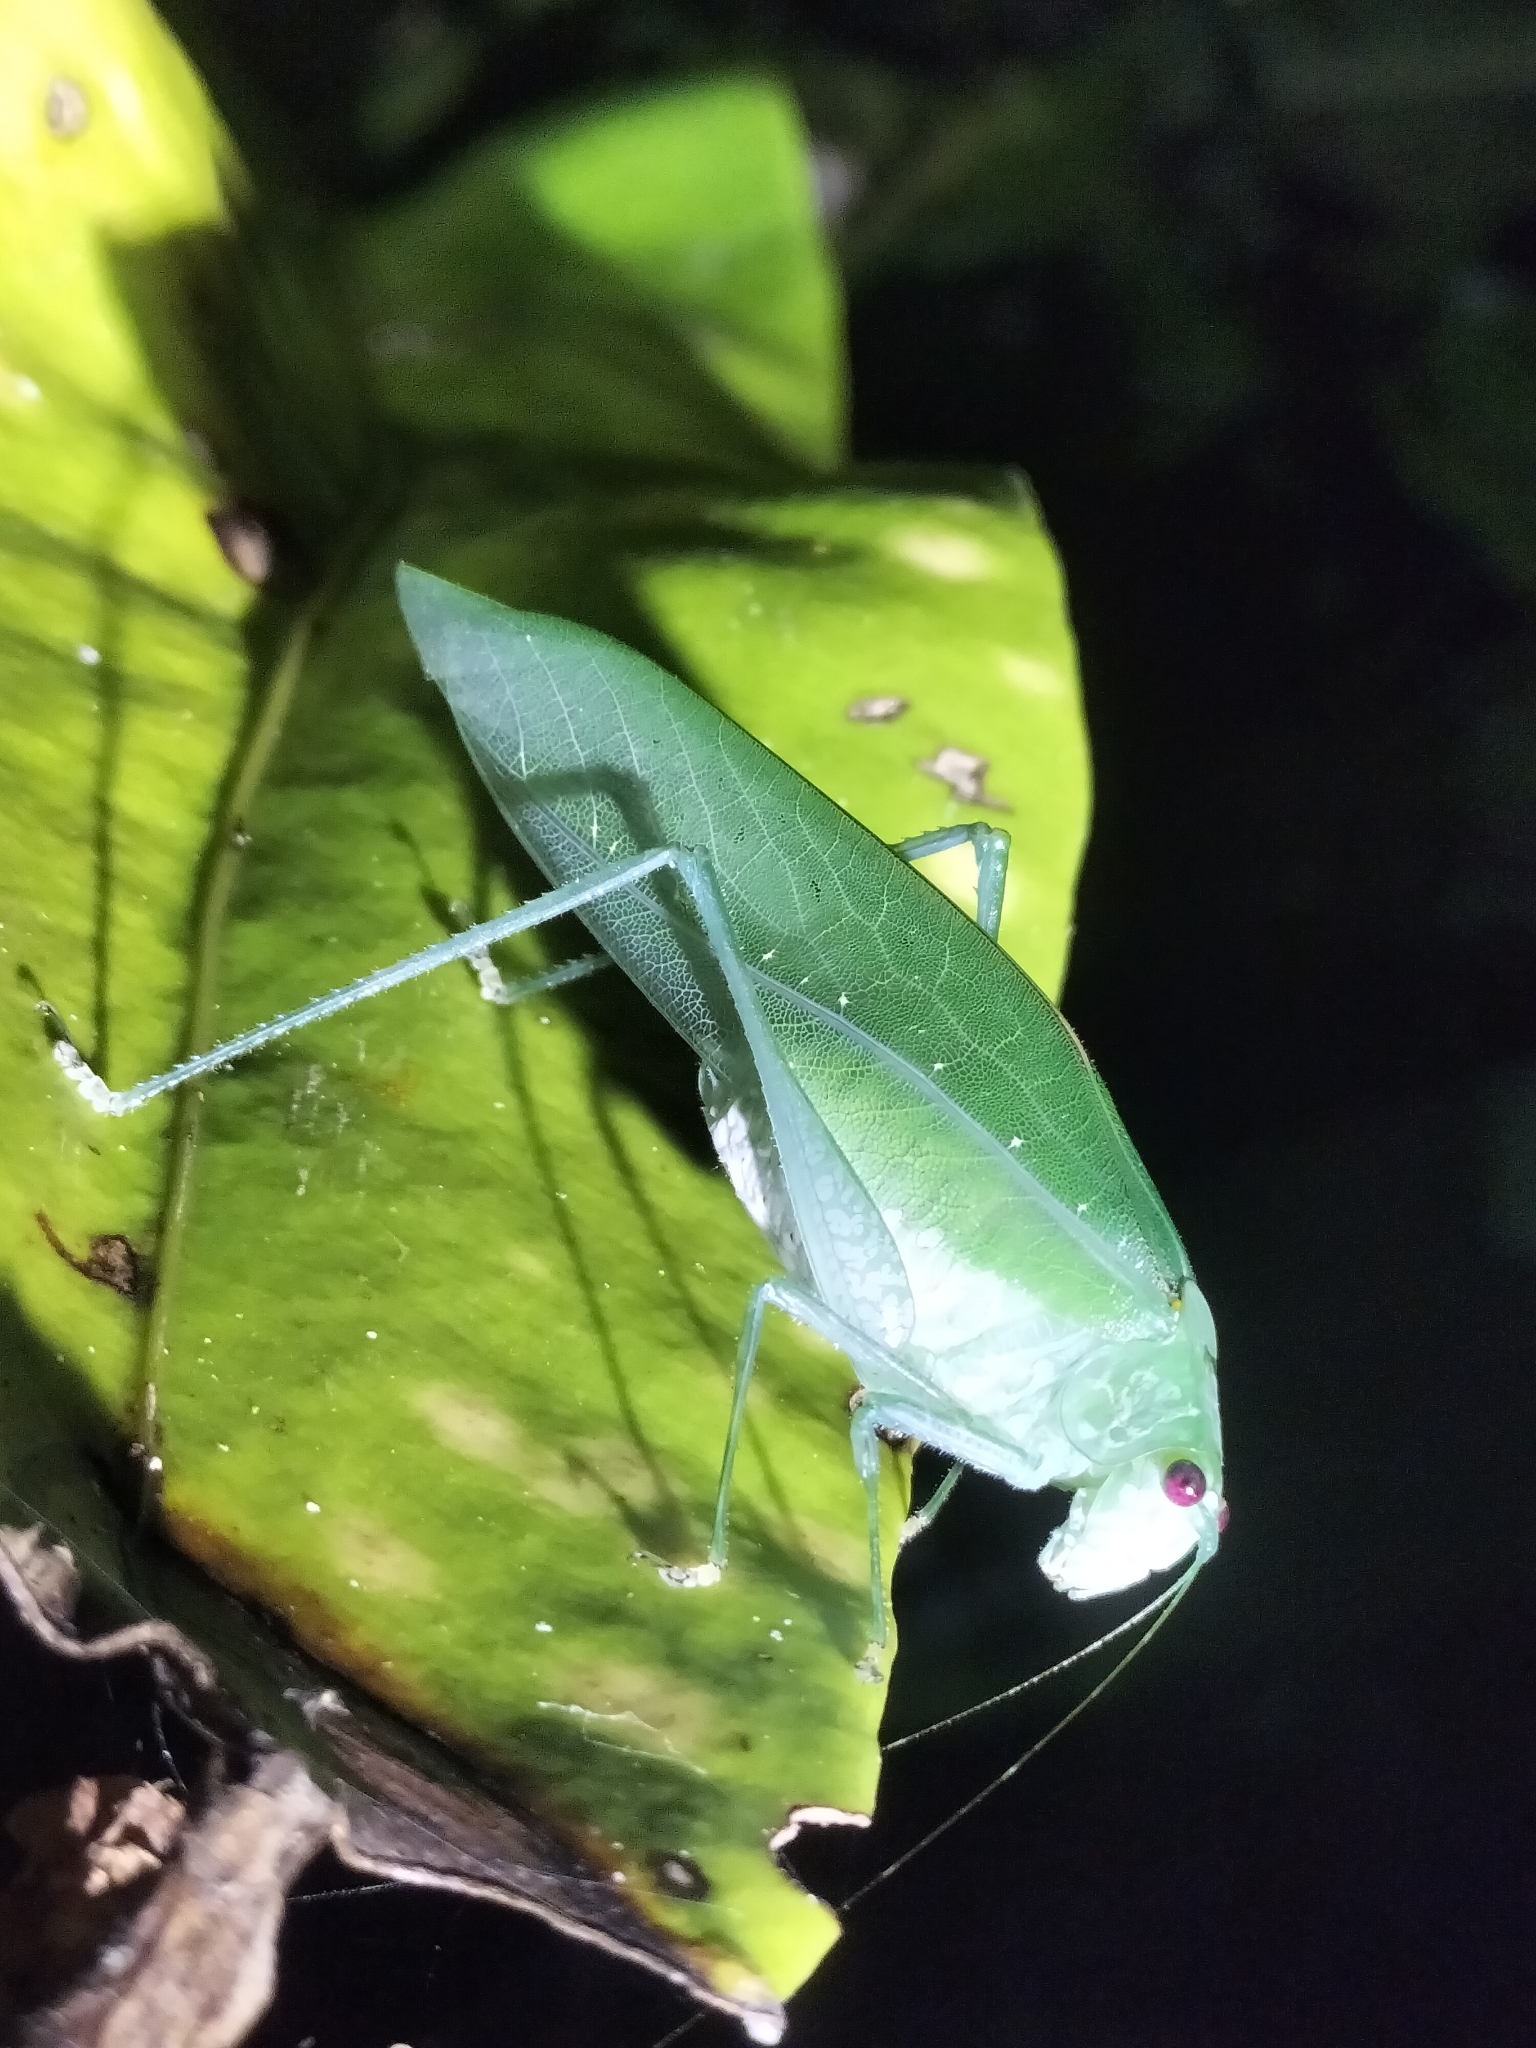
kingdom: Animalia
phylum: Arthropoda
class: Insecta
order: Orthoptera
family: Tettigoniidae
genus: Caedicia
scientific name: Caedicia webberi
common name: Webber's caedicia
